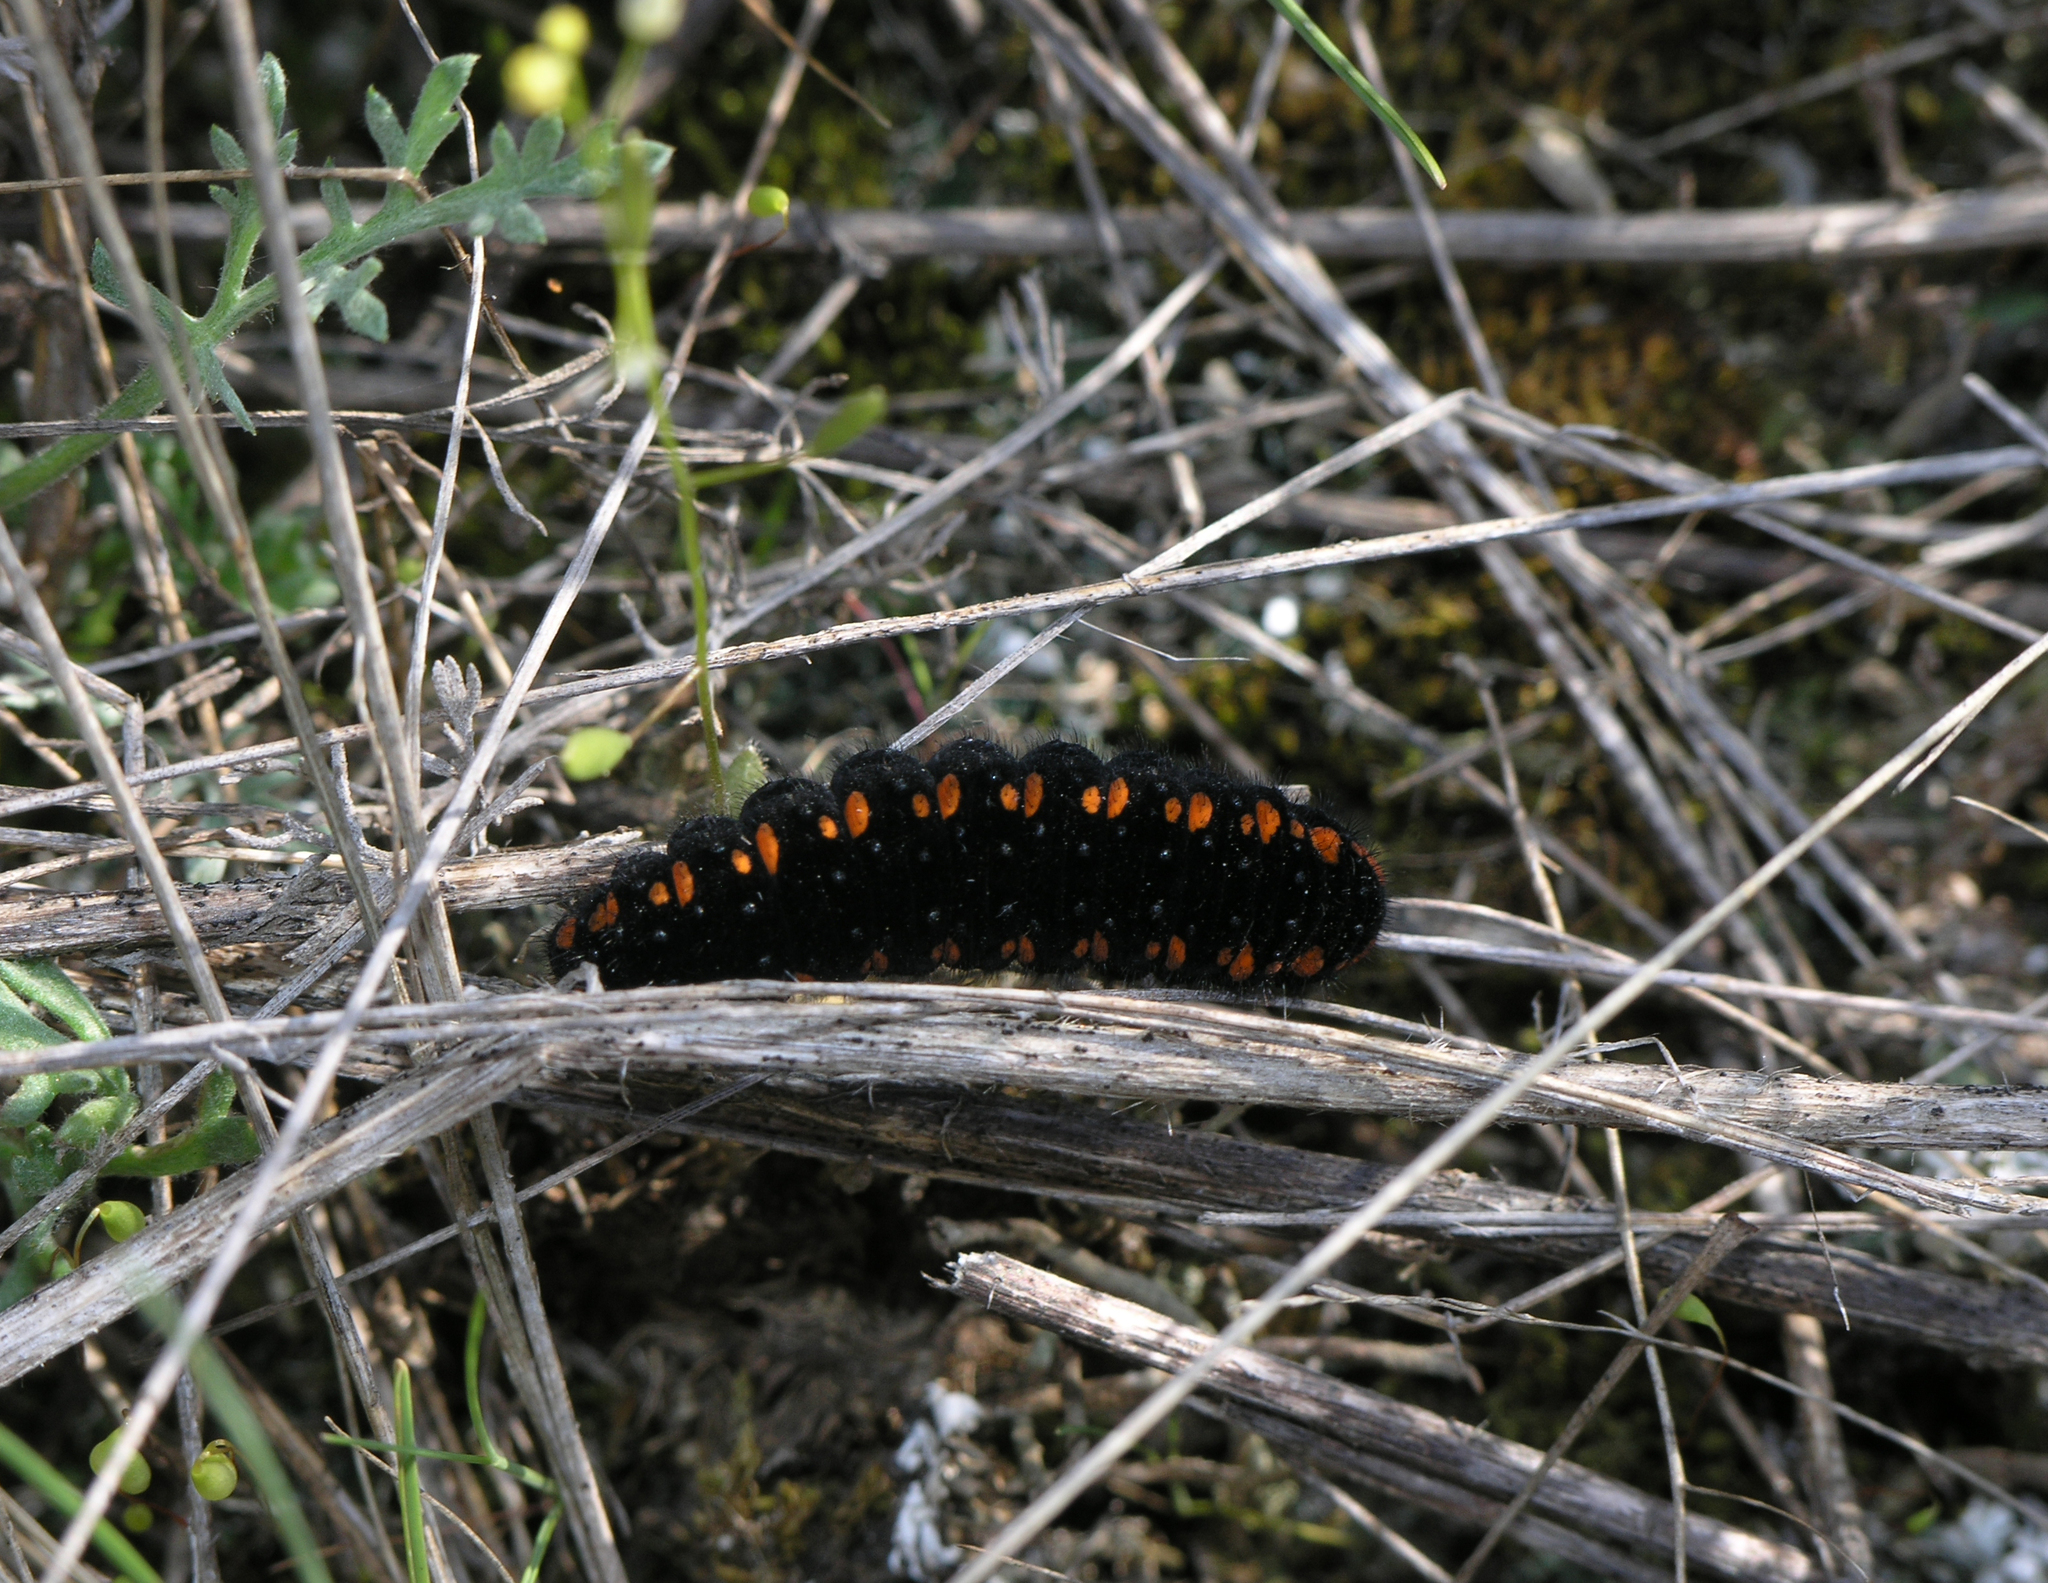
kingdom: Animalia
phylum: Arthropoda
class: Insecta
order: Lepidoptera
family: Papilionidae
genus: Parnassius
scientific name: Parnassius apollo
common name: Apollo
